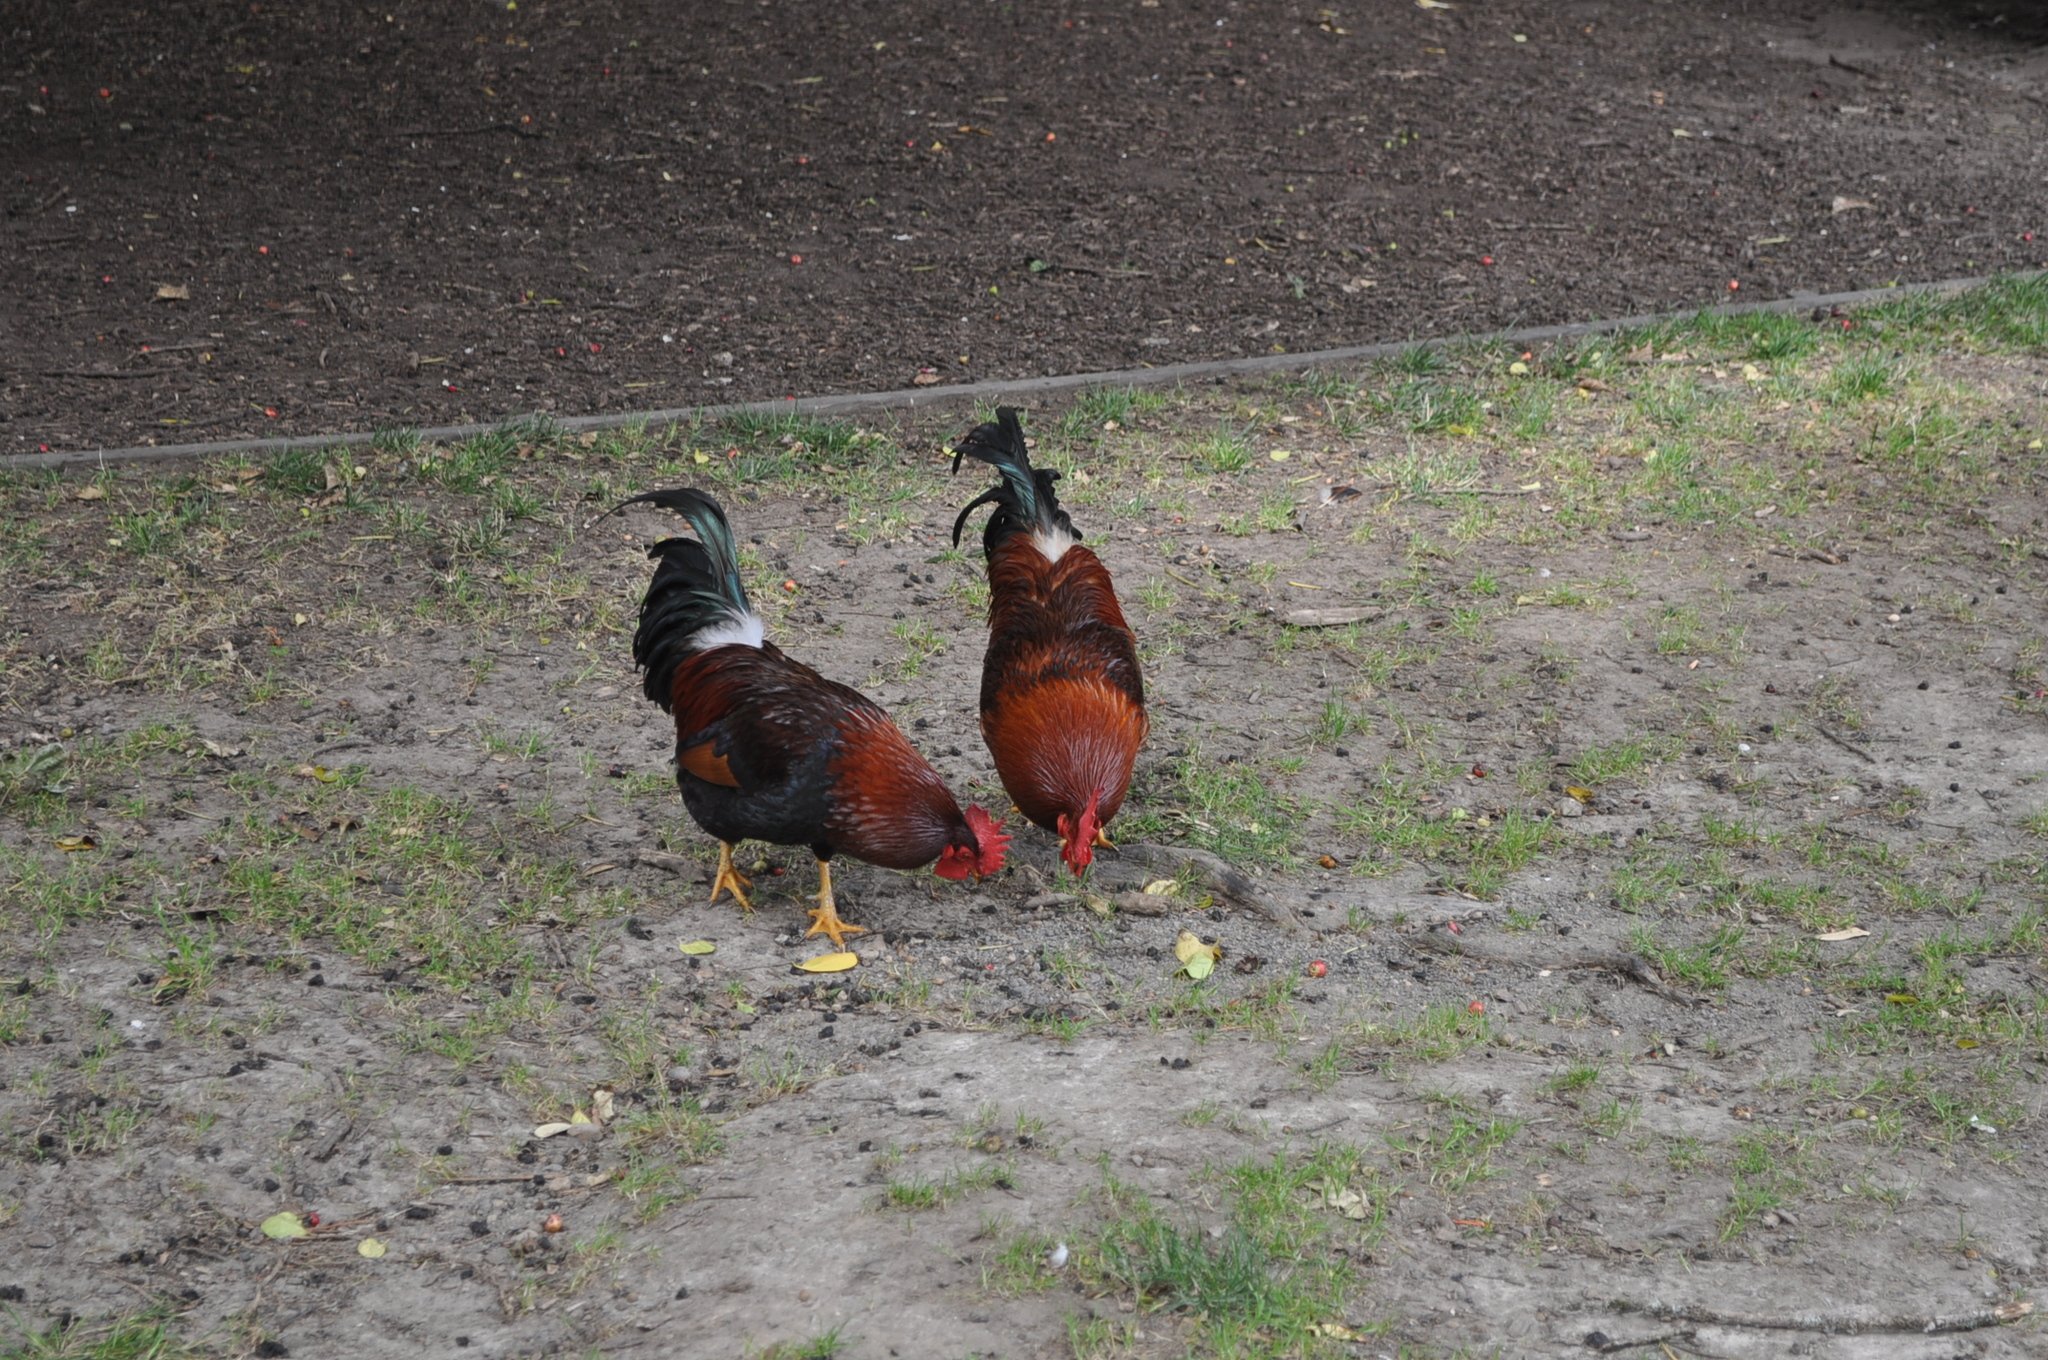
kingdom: Animalia
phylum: Chordata
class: Aves
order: Galliformes
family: Phasianidae
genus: Gallus
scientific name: Gallus gallus
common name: Red junglefowl
